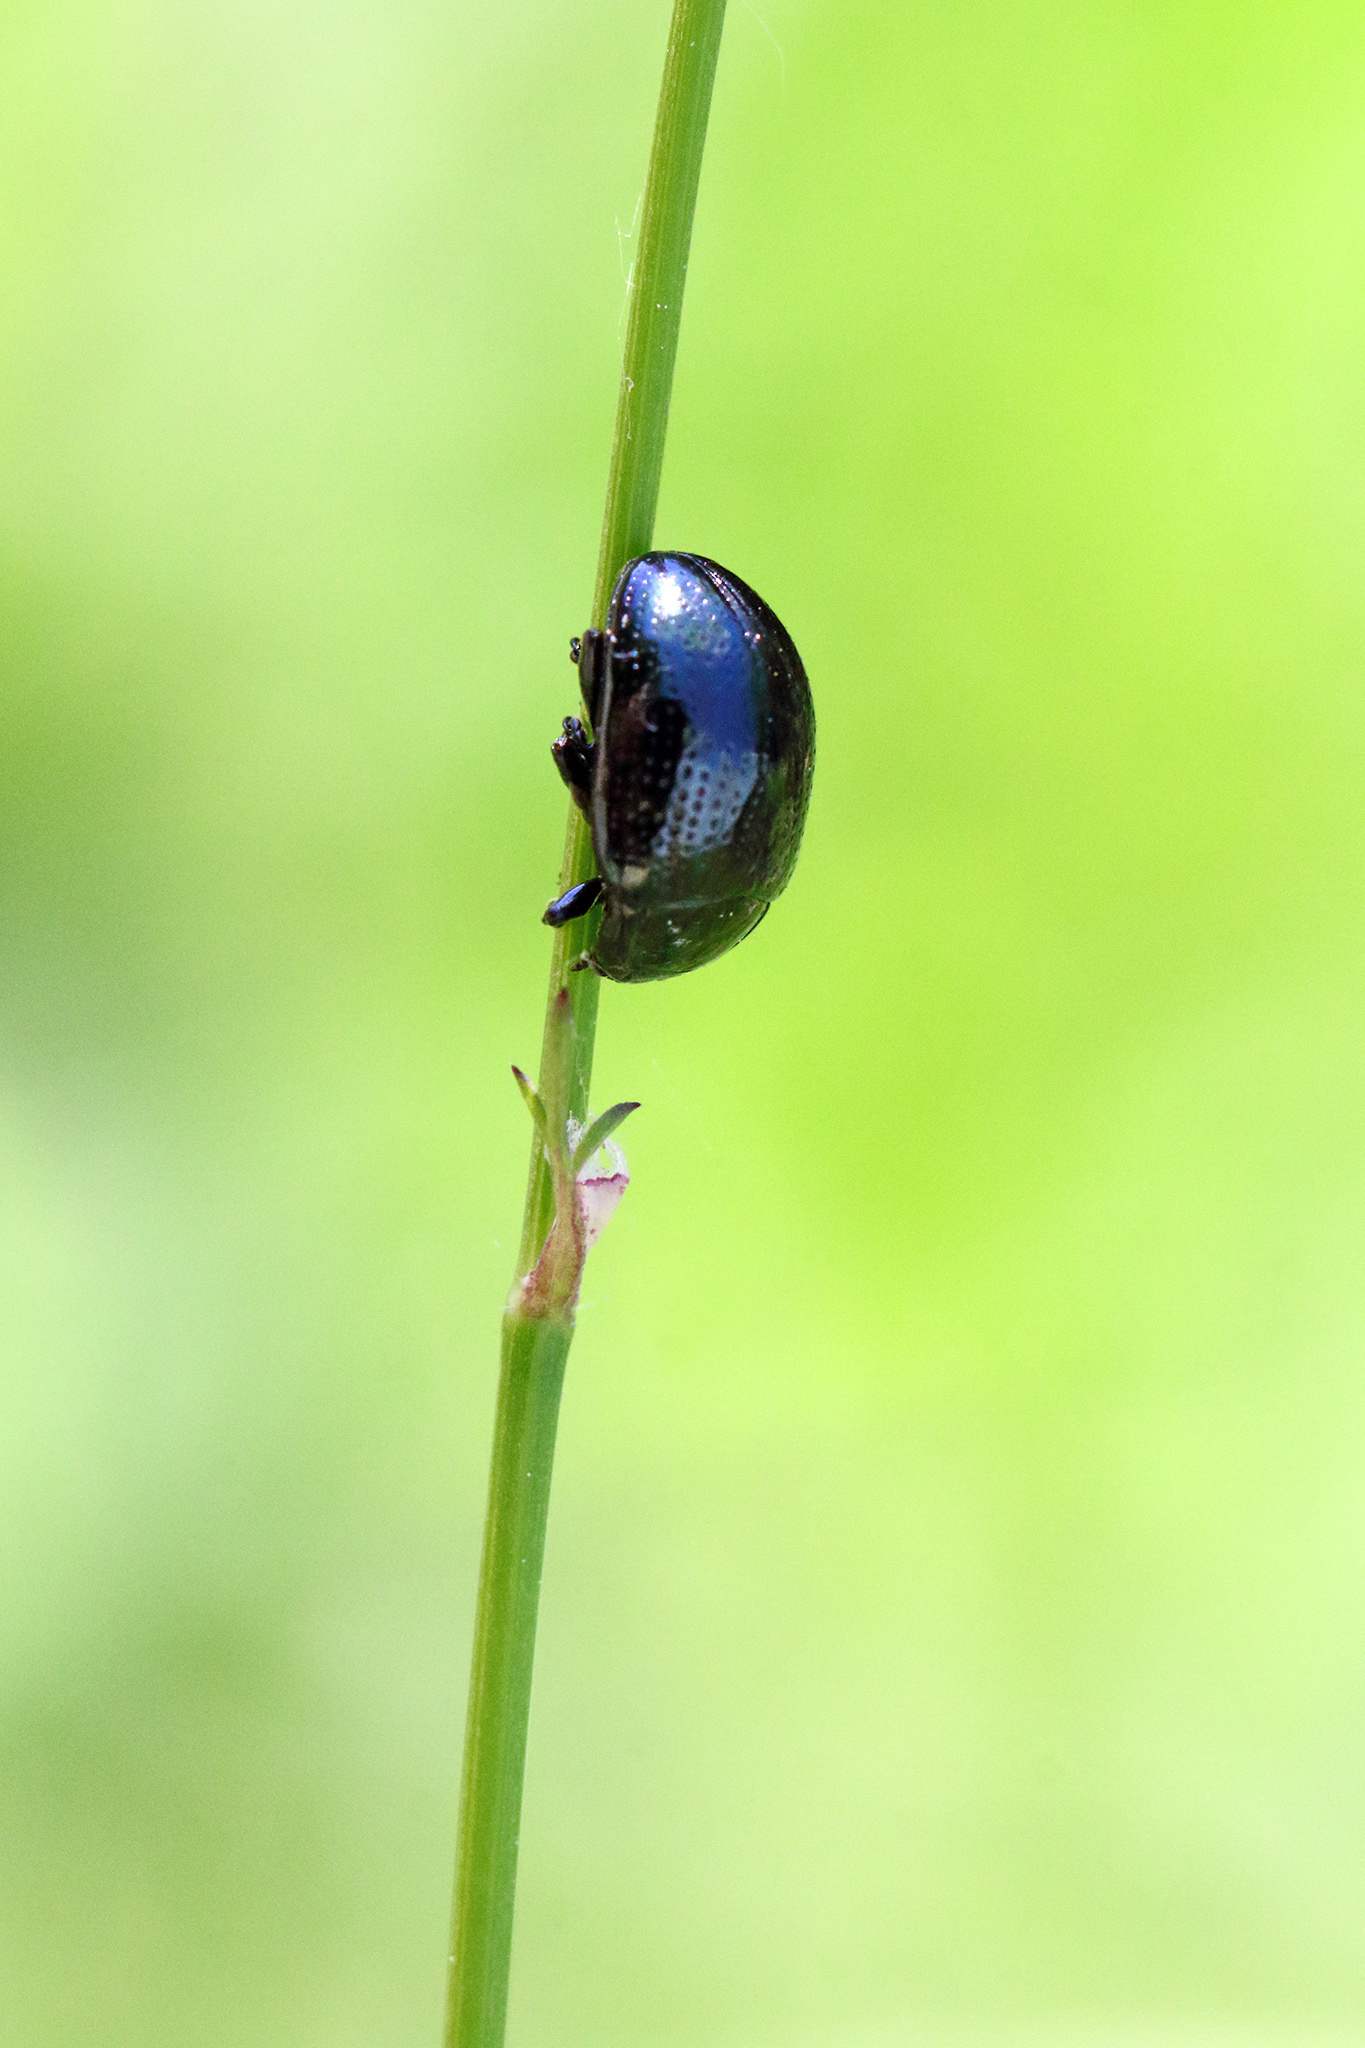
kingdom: Animalia
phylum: Arthropoda
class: Insecta
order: Coleoptera
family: Chrysomelidae
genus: Chrysolina
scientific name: Chrysolina oricalcia
